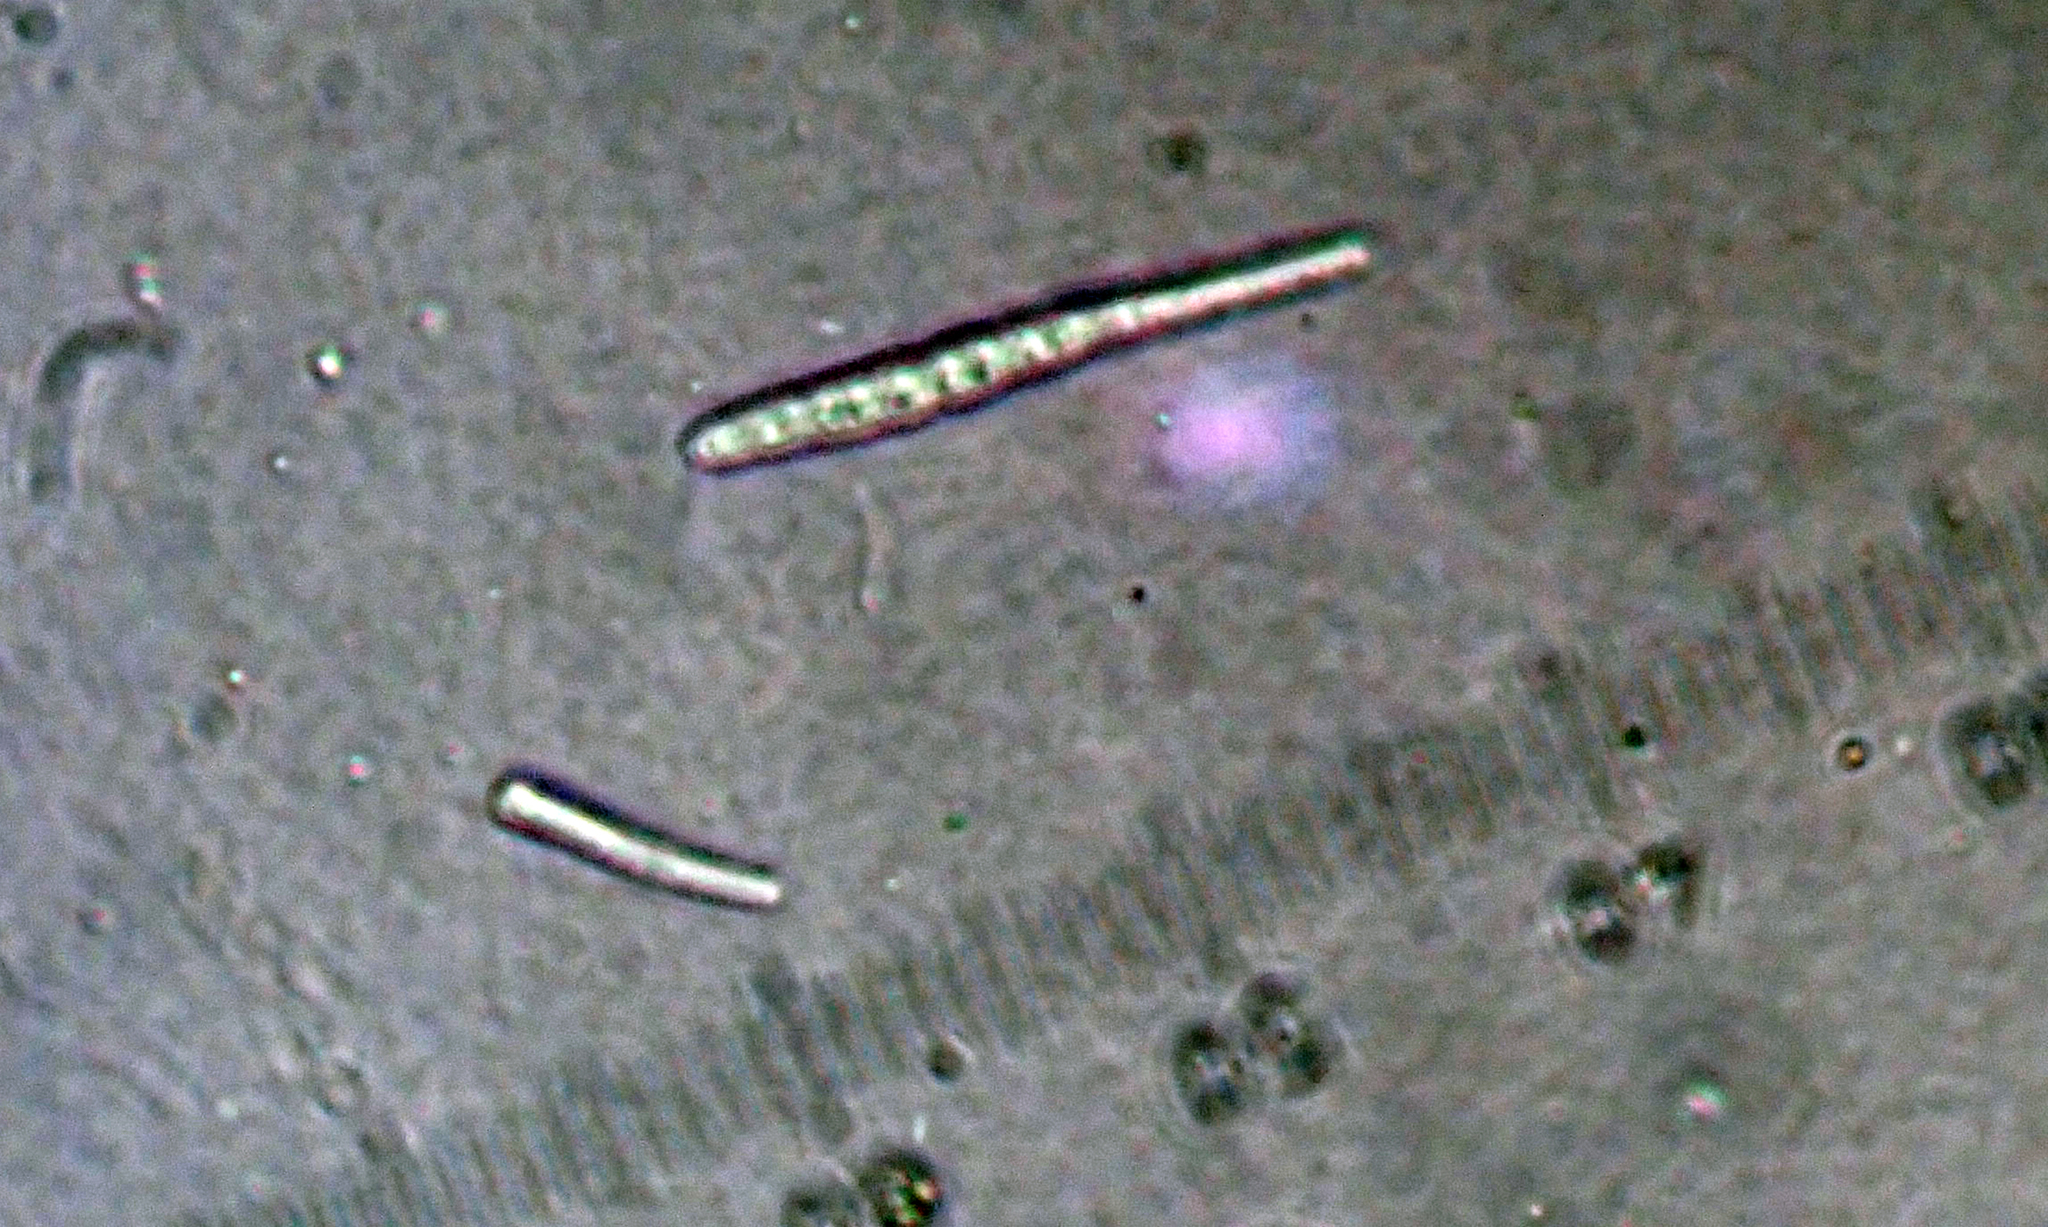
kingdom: Fungi
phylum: Ascomycota
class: Arthoniomycetes
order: Arthoniales
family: Roccellaceae
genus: Lecanactis
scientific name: Lecanactis subfarinosa
